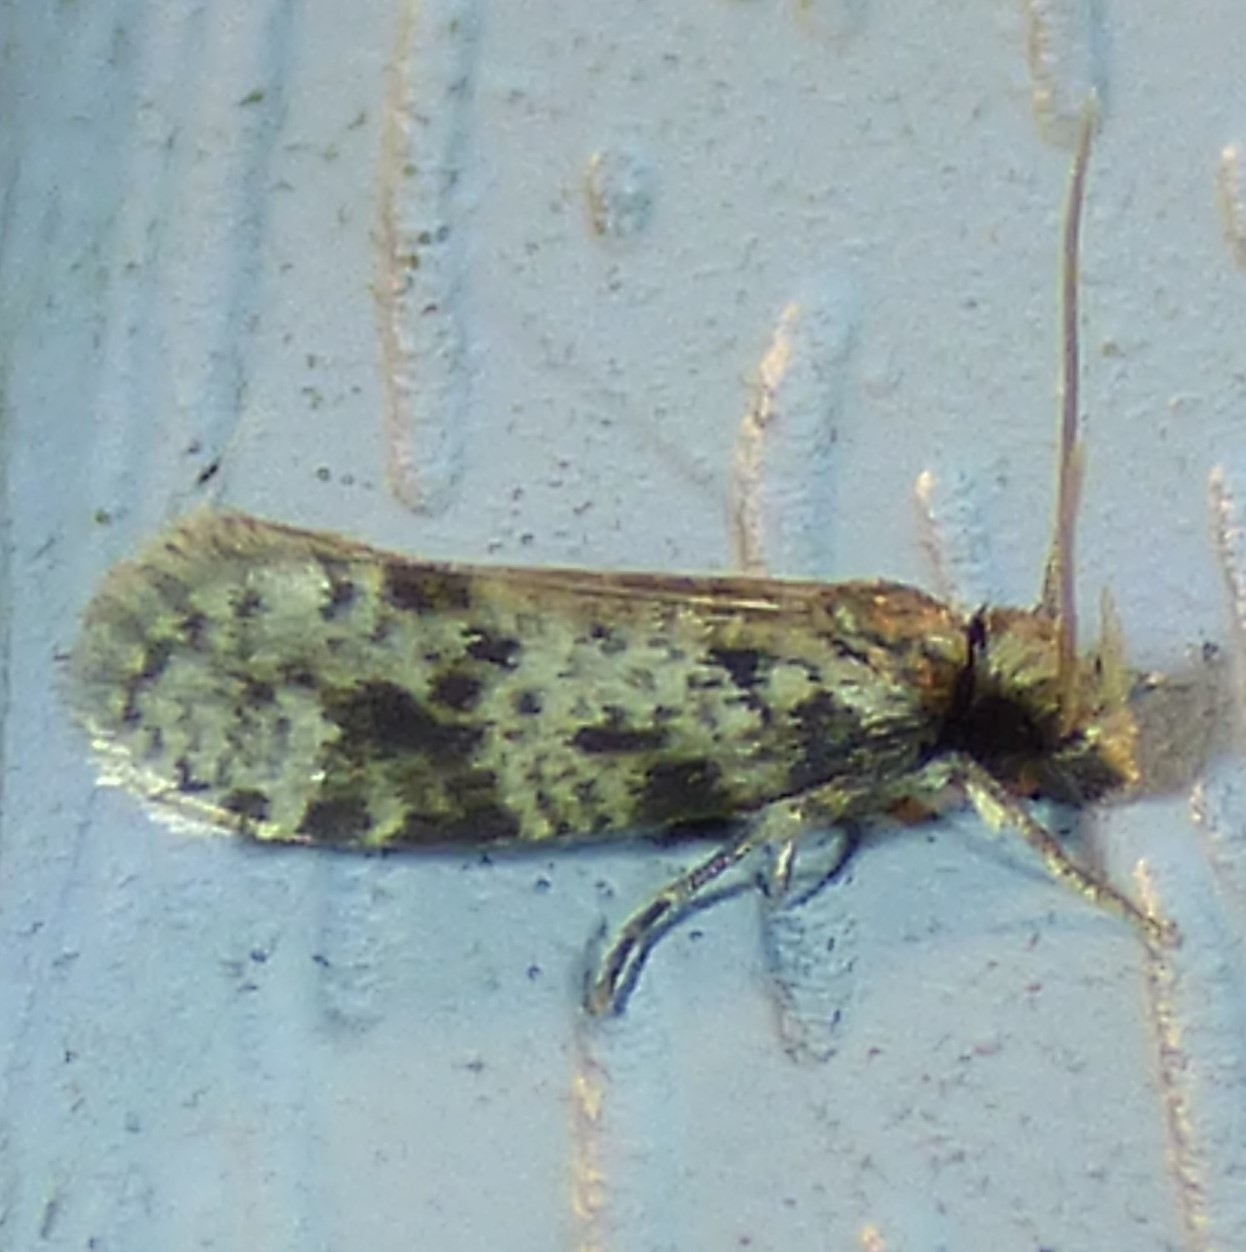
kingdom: Animalia
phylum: Arthropoda
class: Insecta
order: Lepidoptera
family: Tineidae
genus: Amydria
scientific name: Amydria effrentella
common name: Brown-blotched amydria moth
